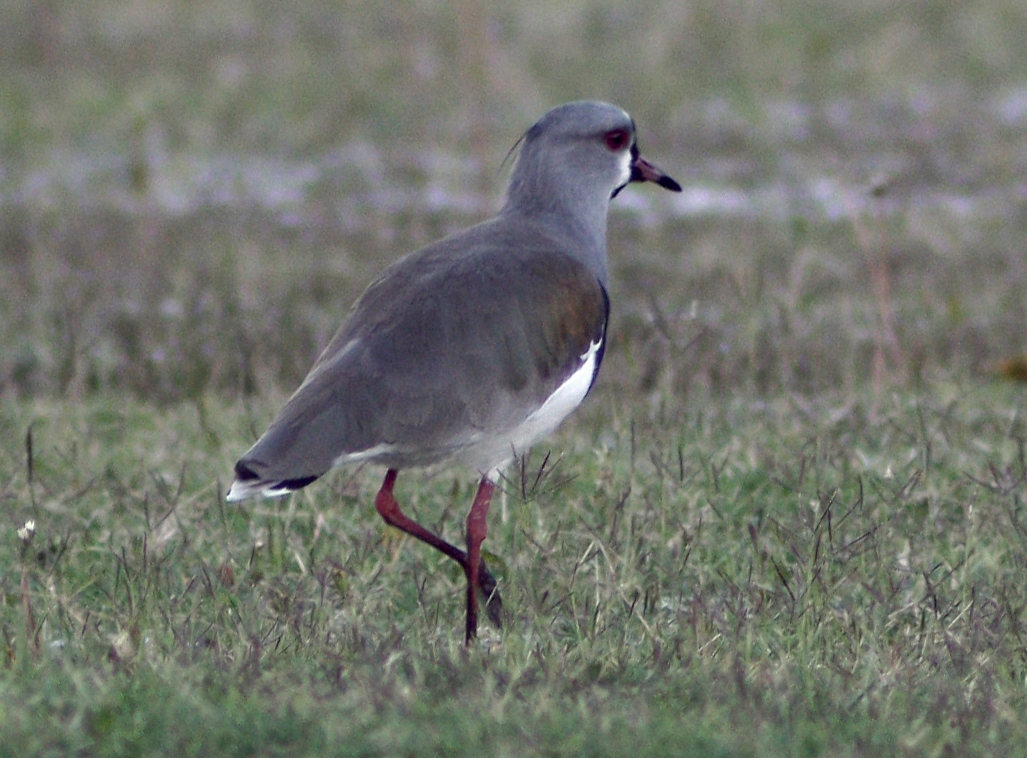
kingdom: Animalia
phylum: Chordata
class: Aves
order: Charadriiformes
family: Charadriidae
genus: Vanellus
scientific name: Vanellus chilensis
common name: Southern lapwing
